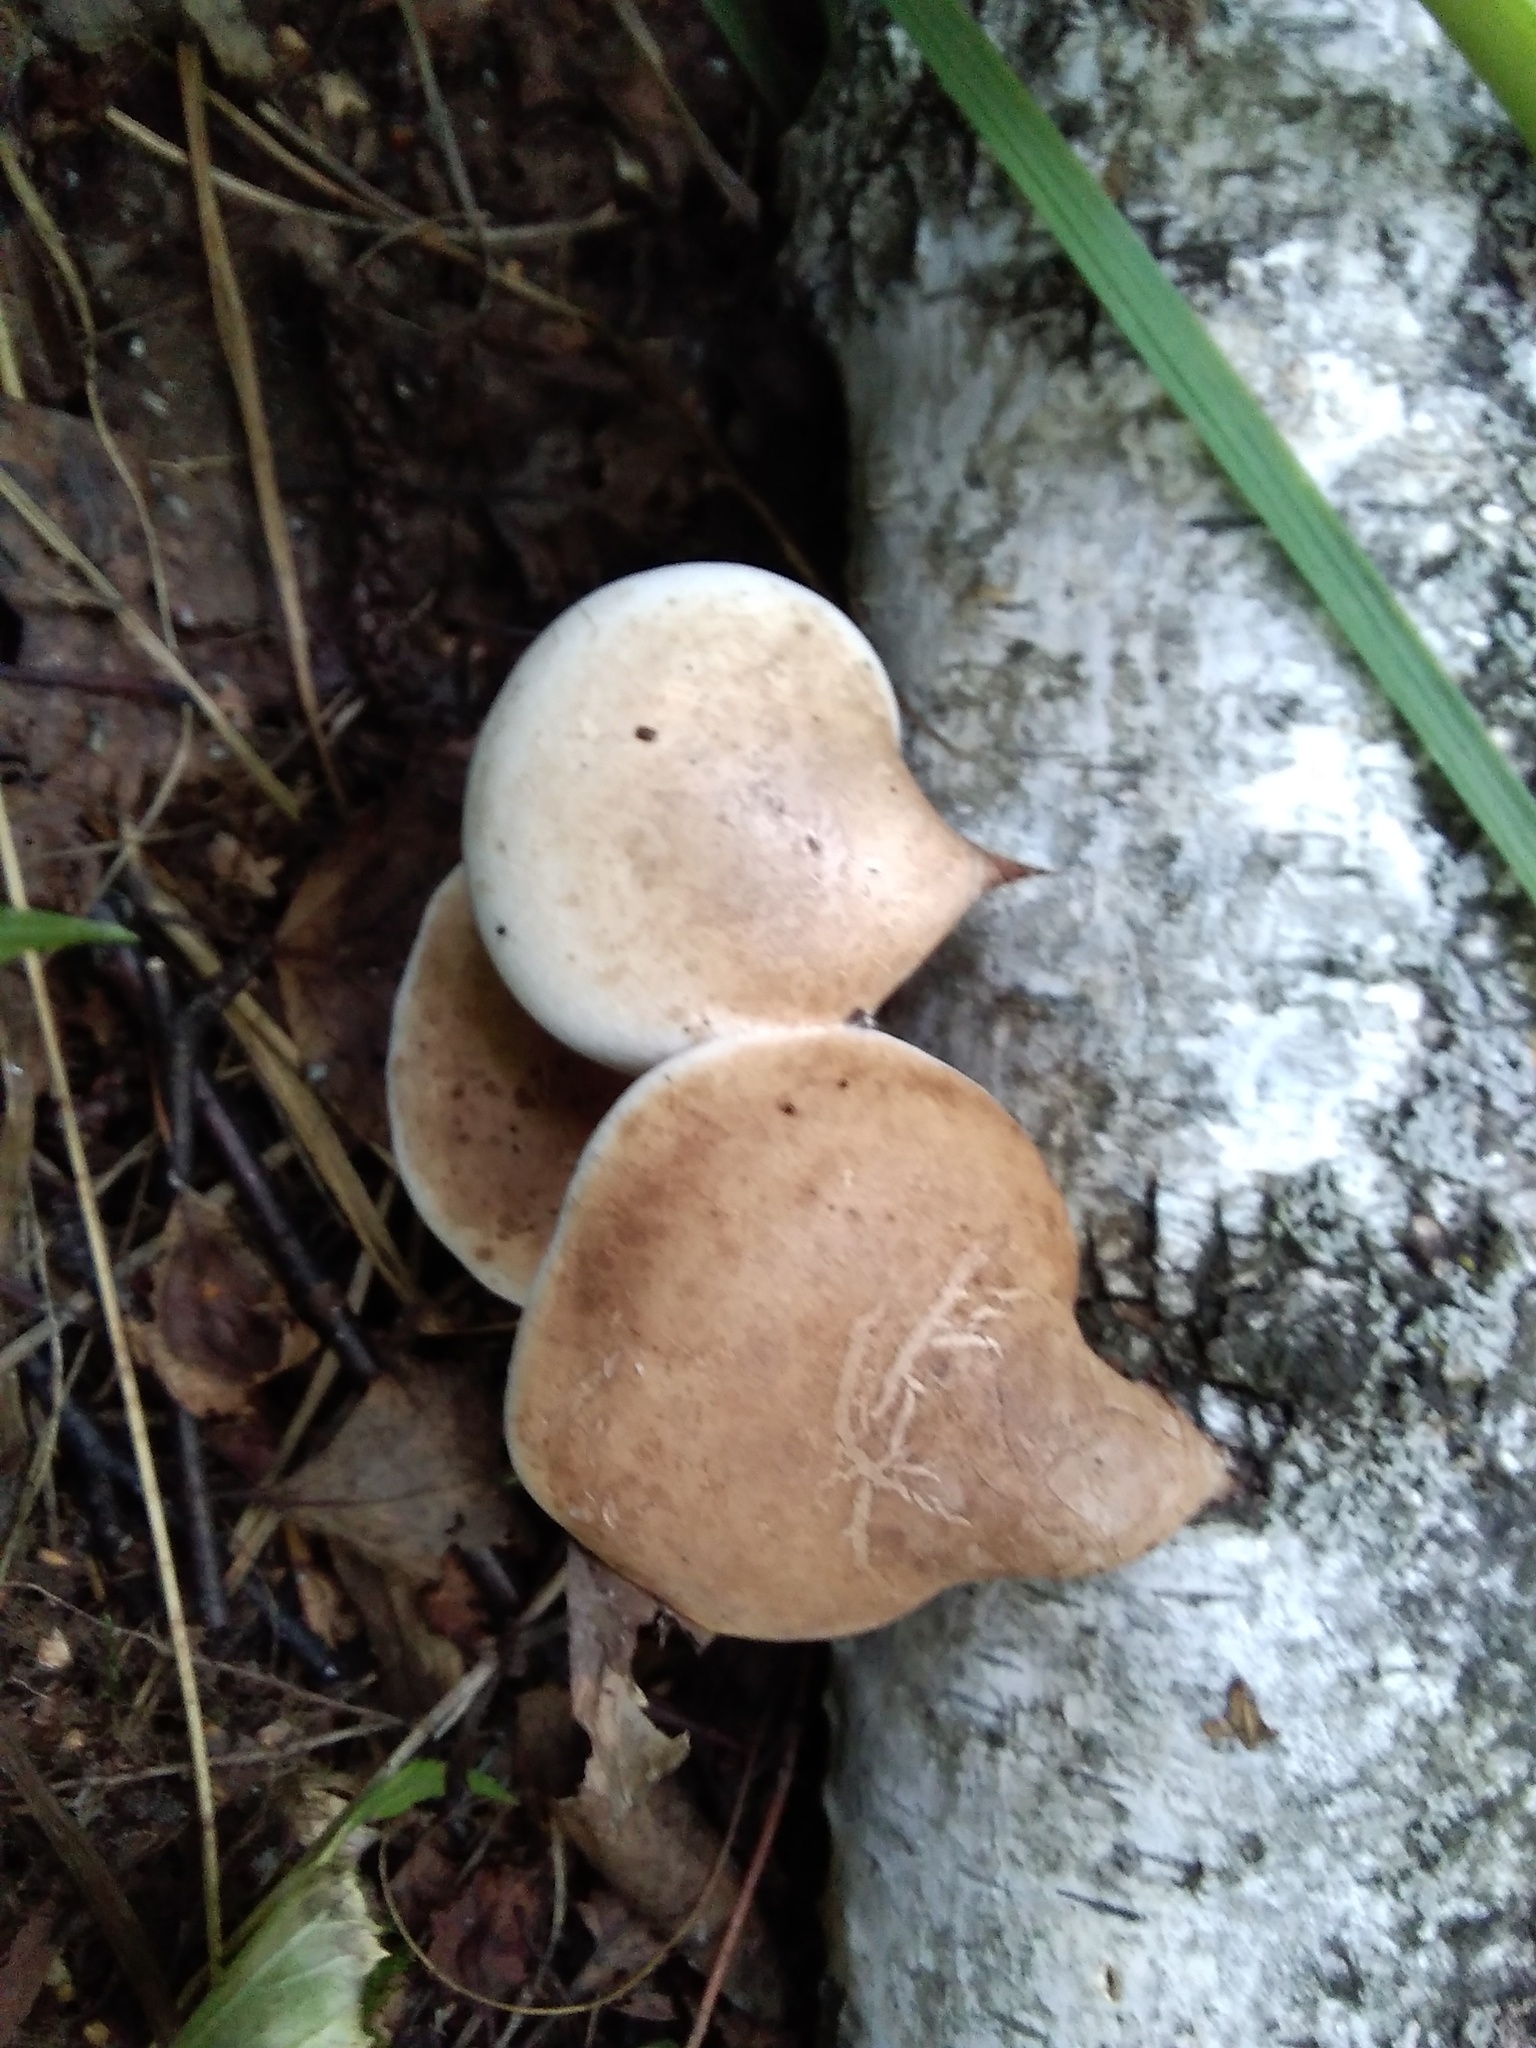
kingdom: Fungi
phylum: Basidiomycota
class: Agaricomycetes
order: Polyporales
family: Fomitopsidaceae
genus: Fomitopsis
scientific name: Fomitopsis betulina
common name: Birch polypore
